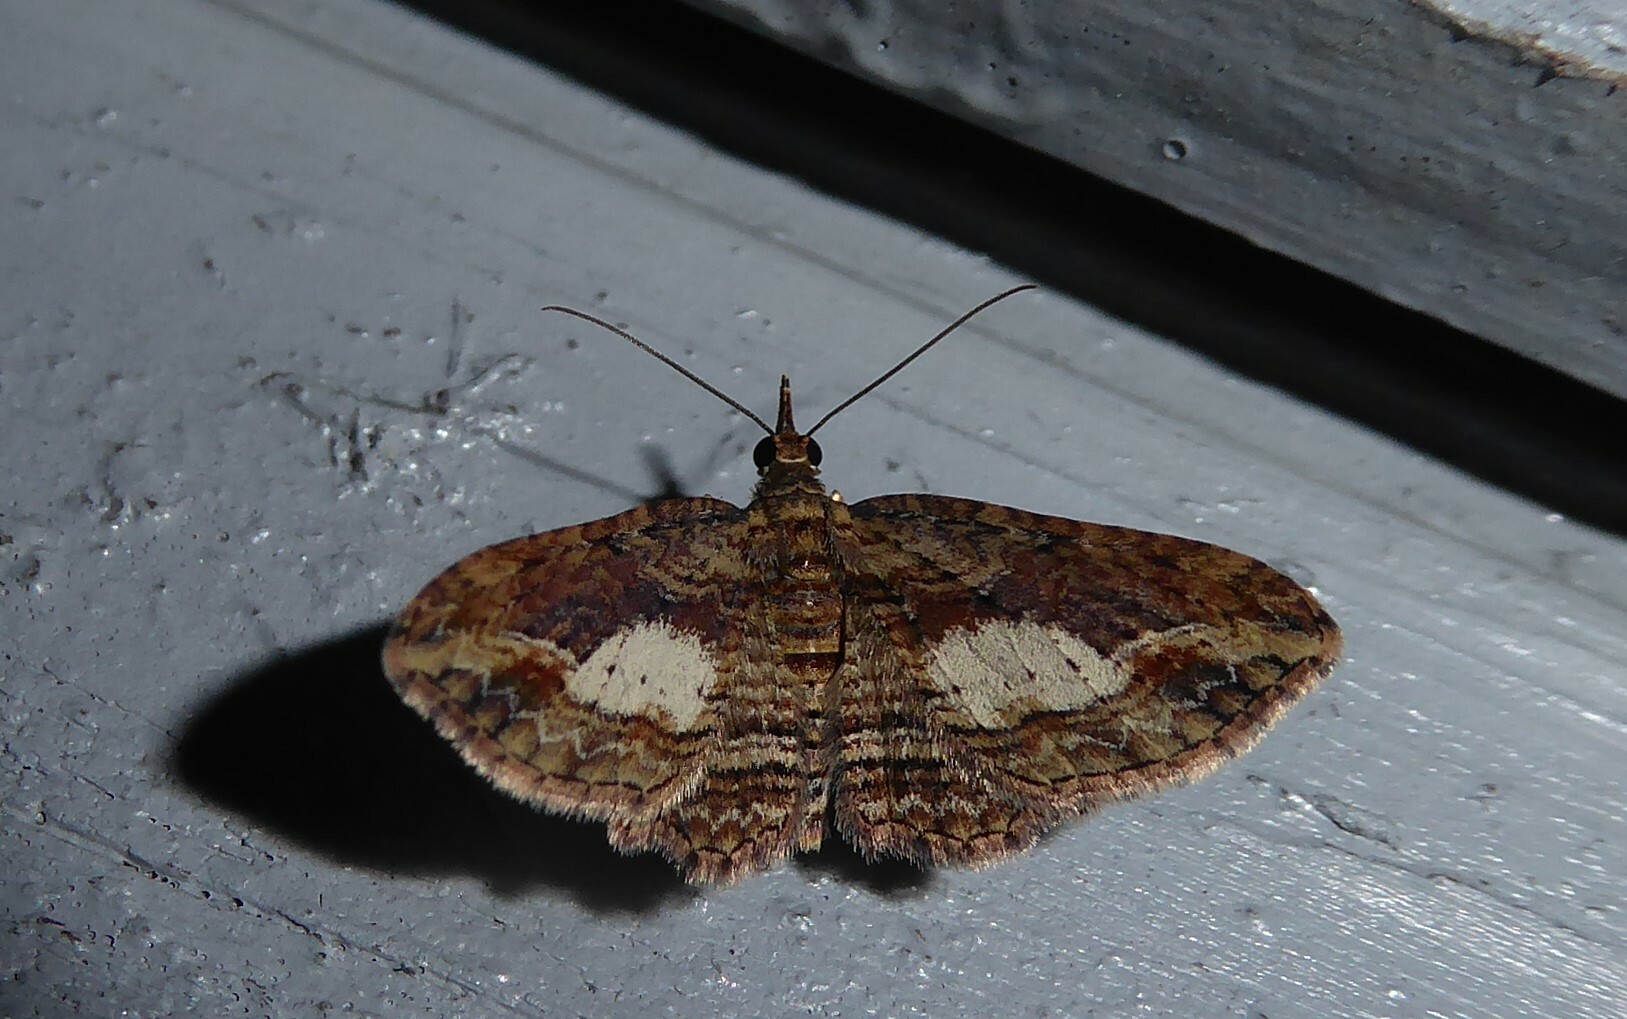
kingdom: Animalia
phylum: Arthropoda
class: Insecta
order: Lepidoptera
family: Geometridae
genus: Chloroclystis
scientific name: Chloroclystis filata
